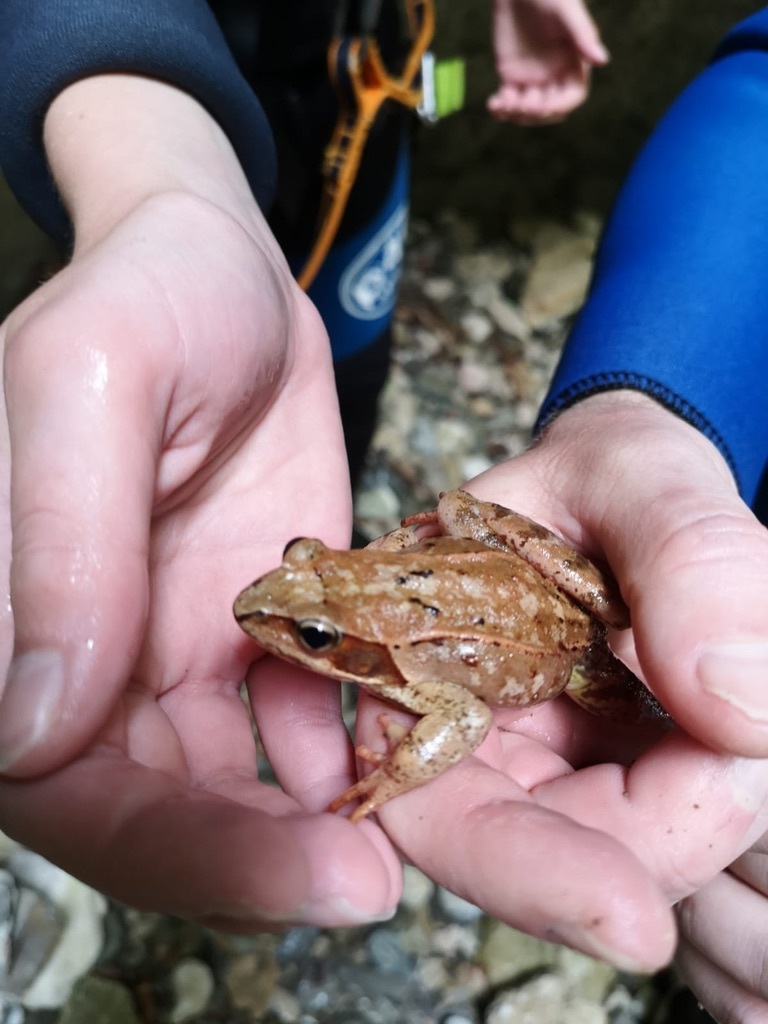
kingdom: Animalia
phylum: Chordata
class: Amphibia
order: Anura
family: Ranidae
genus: Rana
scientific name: Rana temporaria
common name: Common frog
